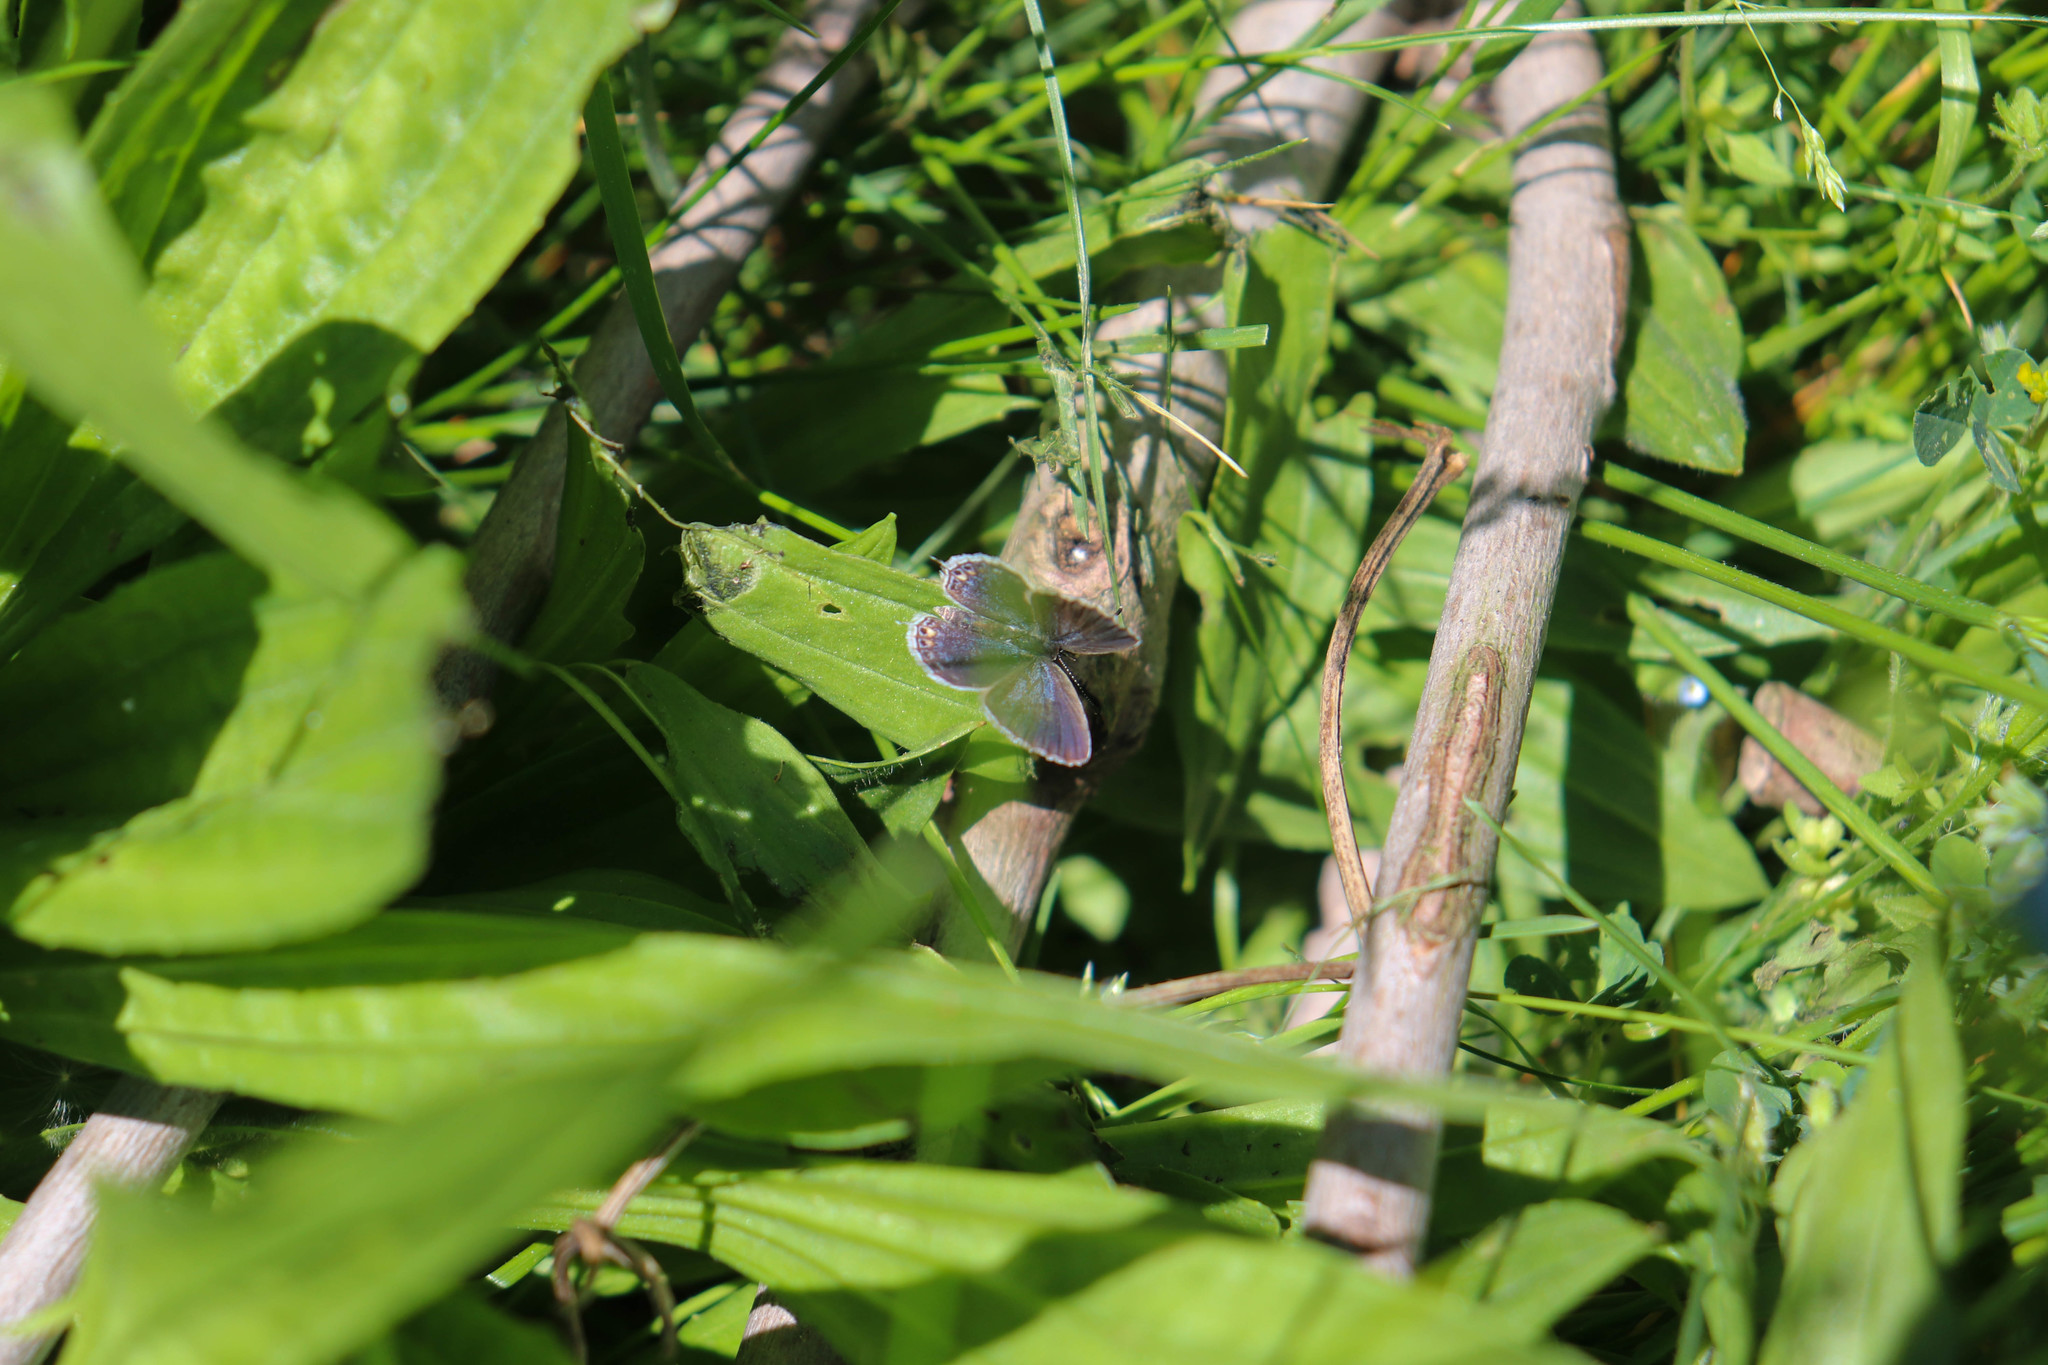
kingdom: Animalia
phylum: Arthropoda
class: Insecta
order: Lepidoptera
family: Lycaenidae
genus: Elkalyce
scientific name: Elkalyce comyntas
